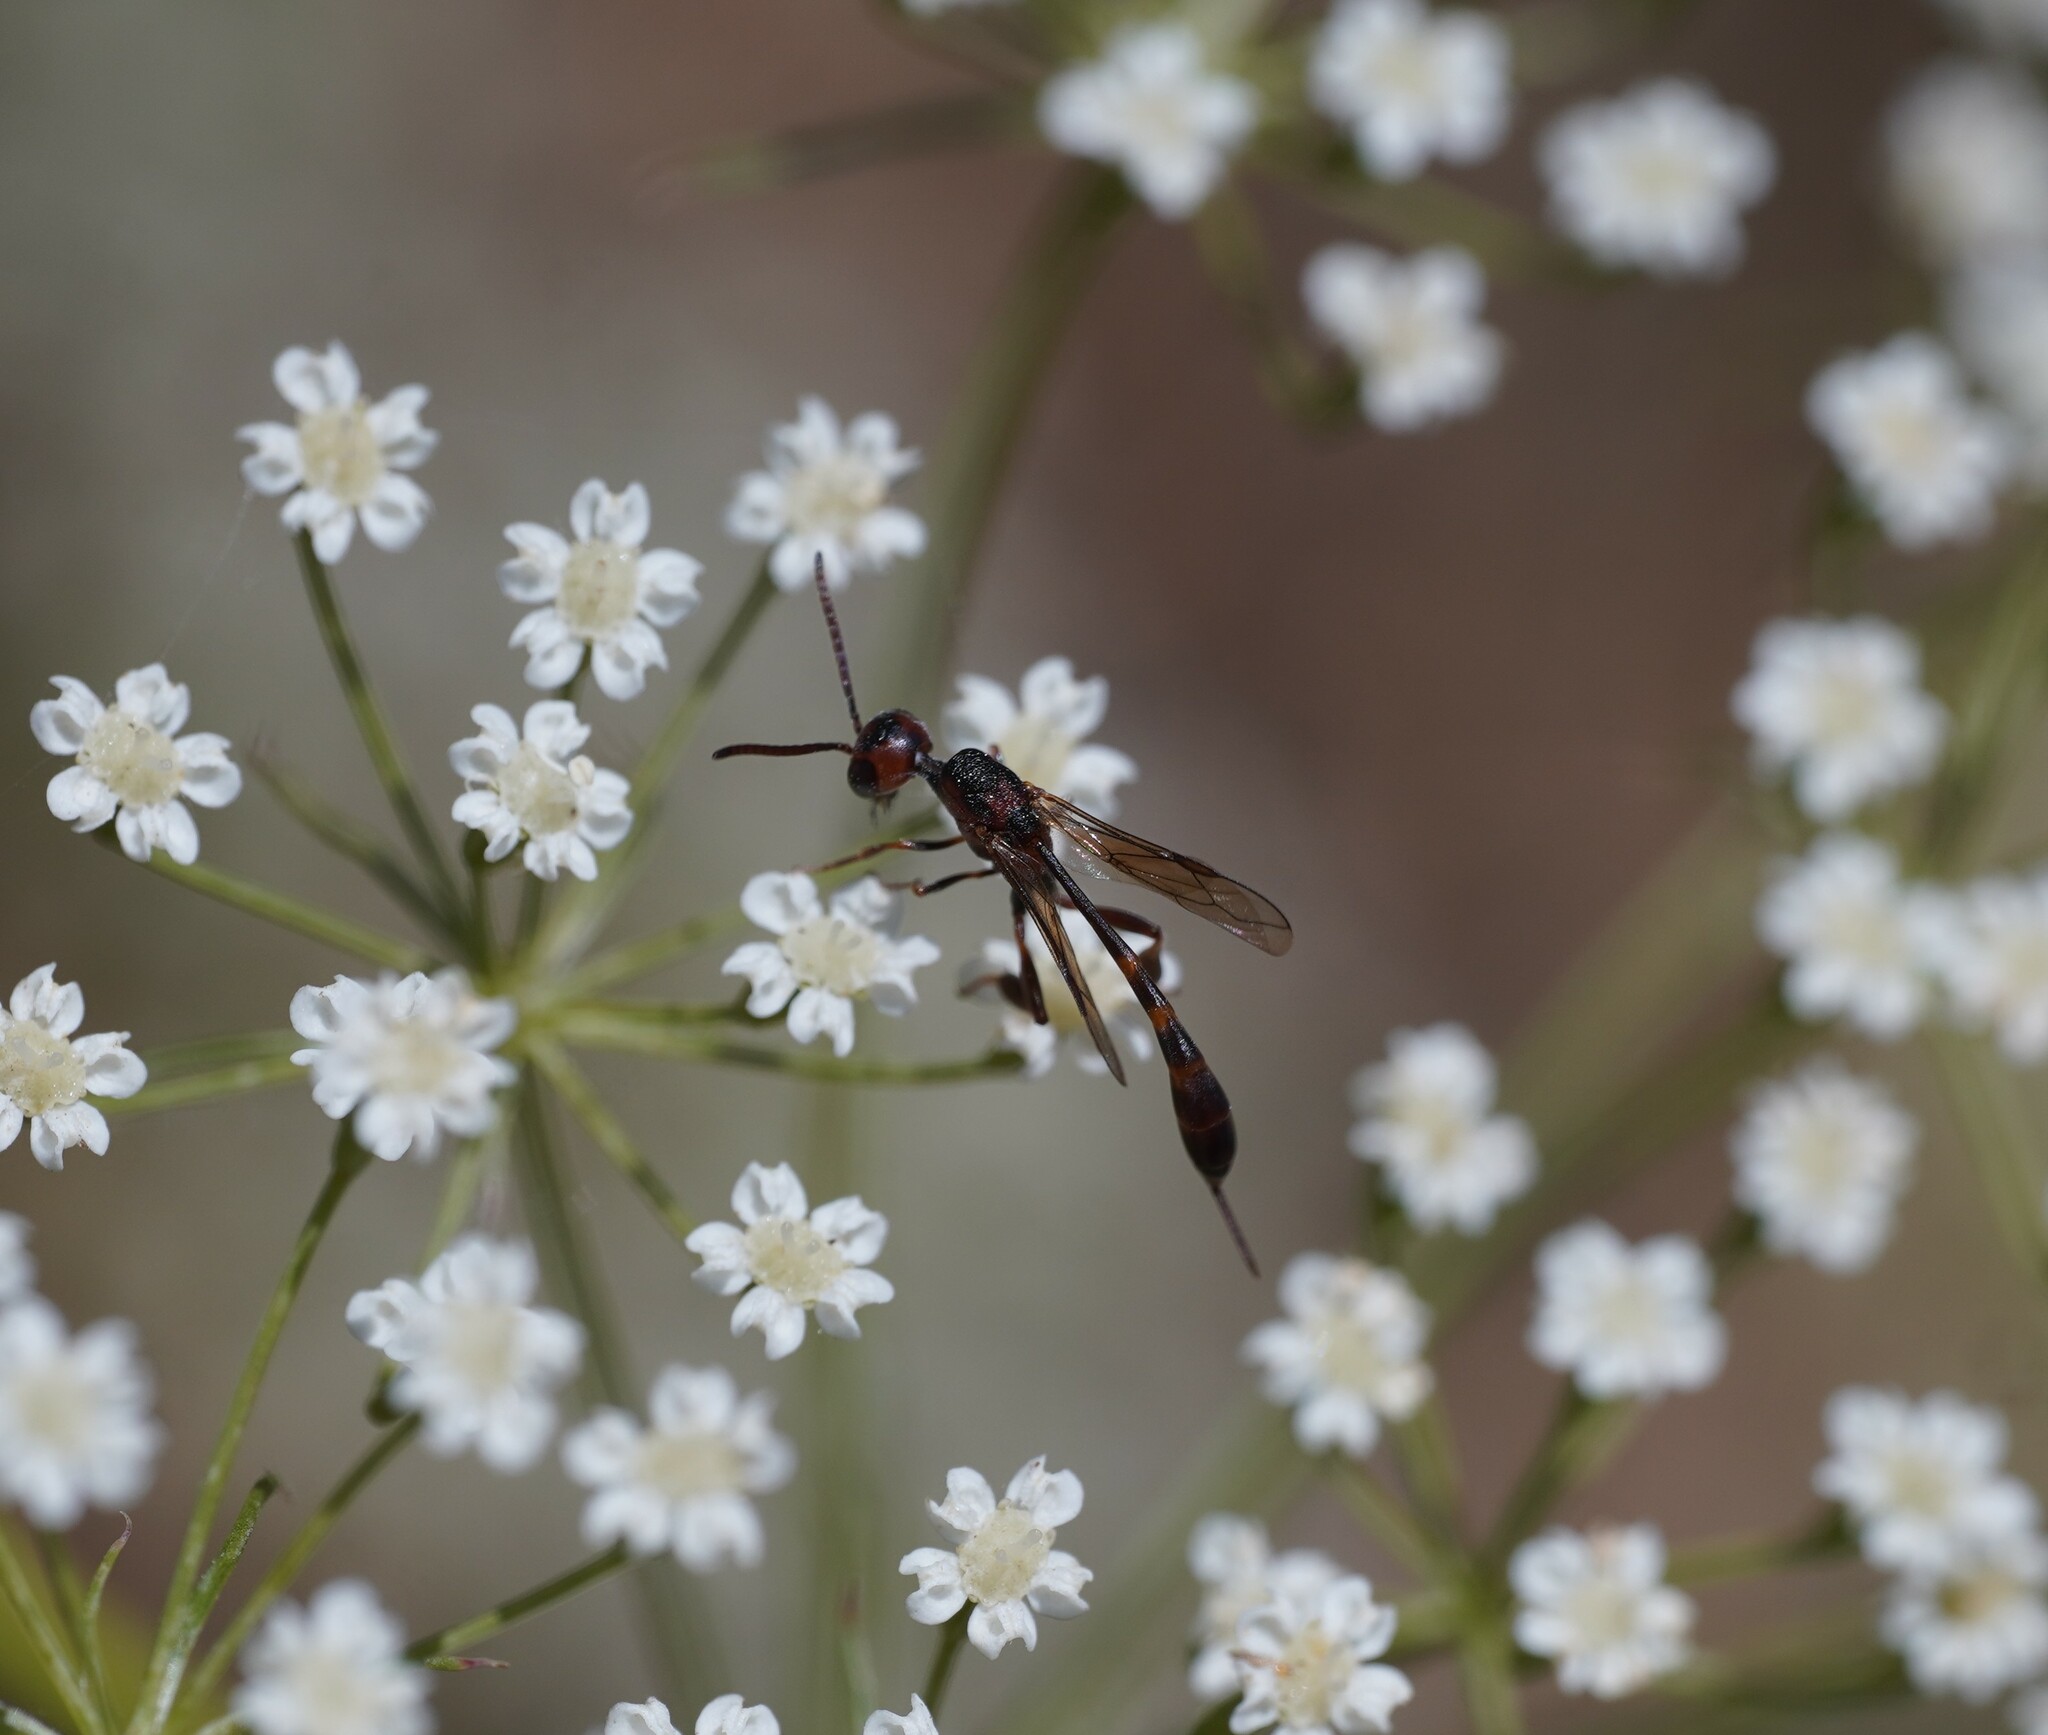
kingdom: Animalia
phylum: Arthropoda
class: Insecta
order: Hymenoptera
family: Gasteruptiidae
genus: Gasteruption
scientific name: Gasteruption hastator
